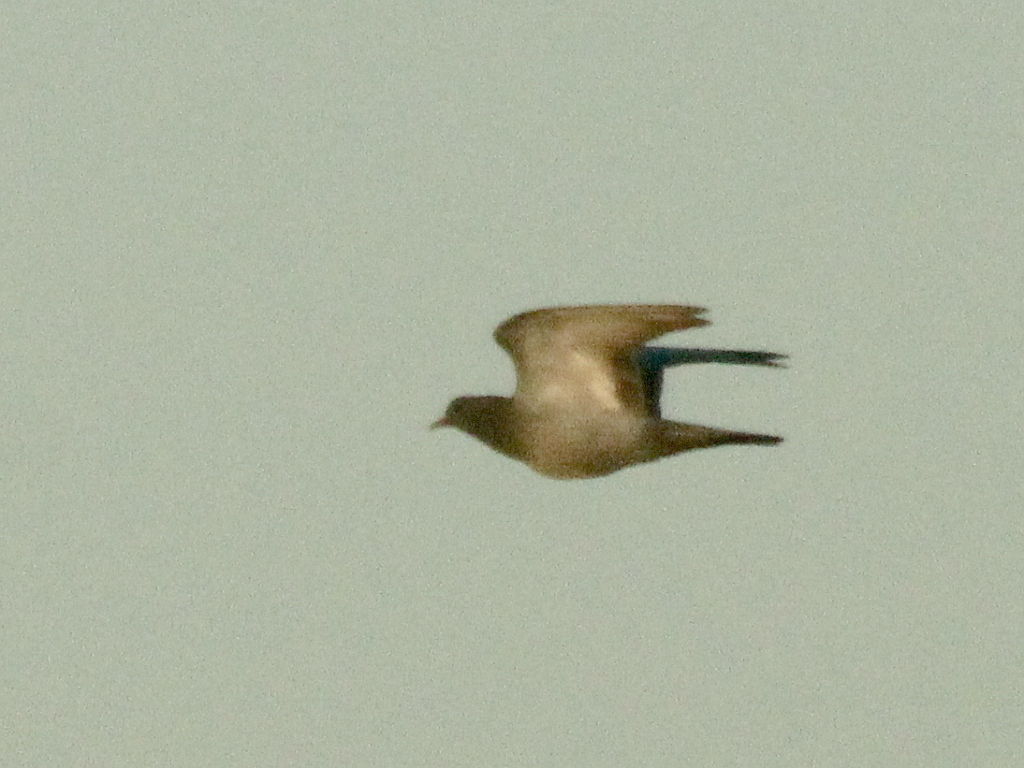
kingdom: Animalia
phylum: Chordata
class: Aves
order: Columbiformes
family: Columbidae
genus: Columba
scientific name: Columba oenas
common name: Stock dove
